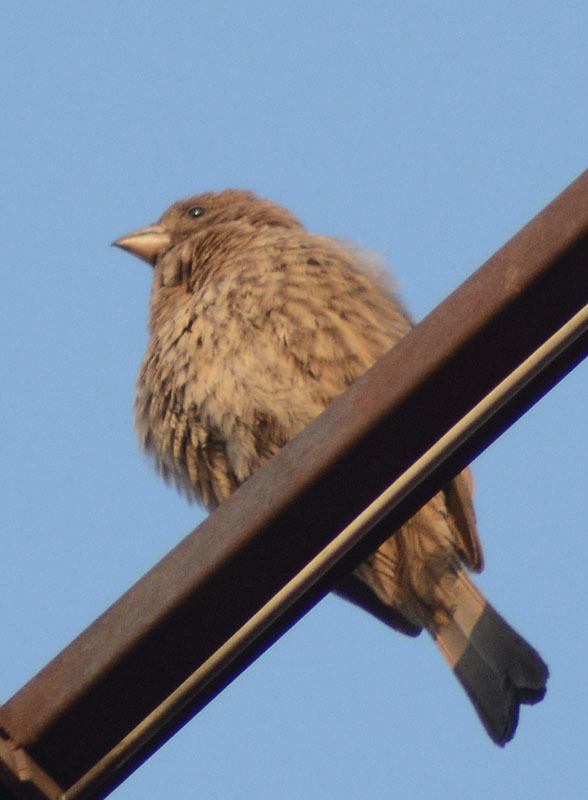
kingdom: Animalia
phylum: Chordata
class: Aves
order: Passeriformes
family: Fringillidae
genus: Haemorhous
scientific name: Haemorhous mexicanus
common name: House finch
